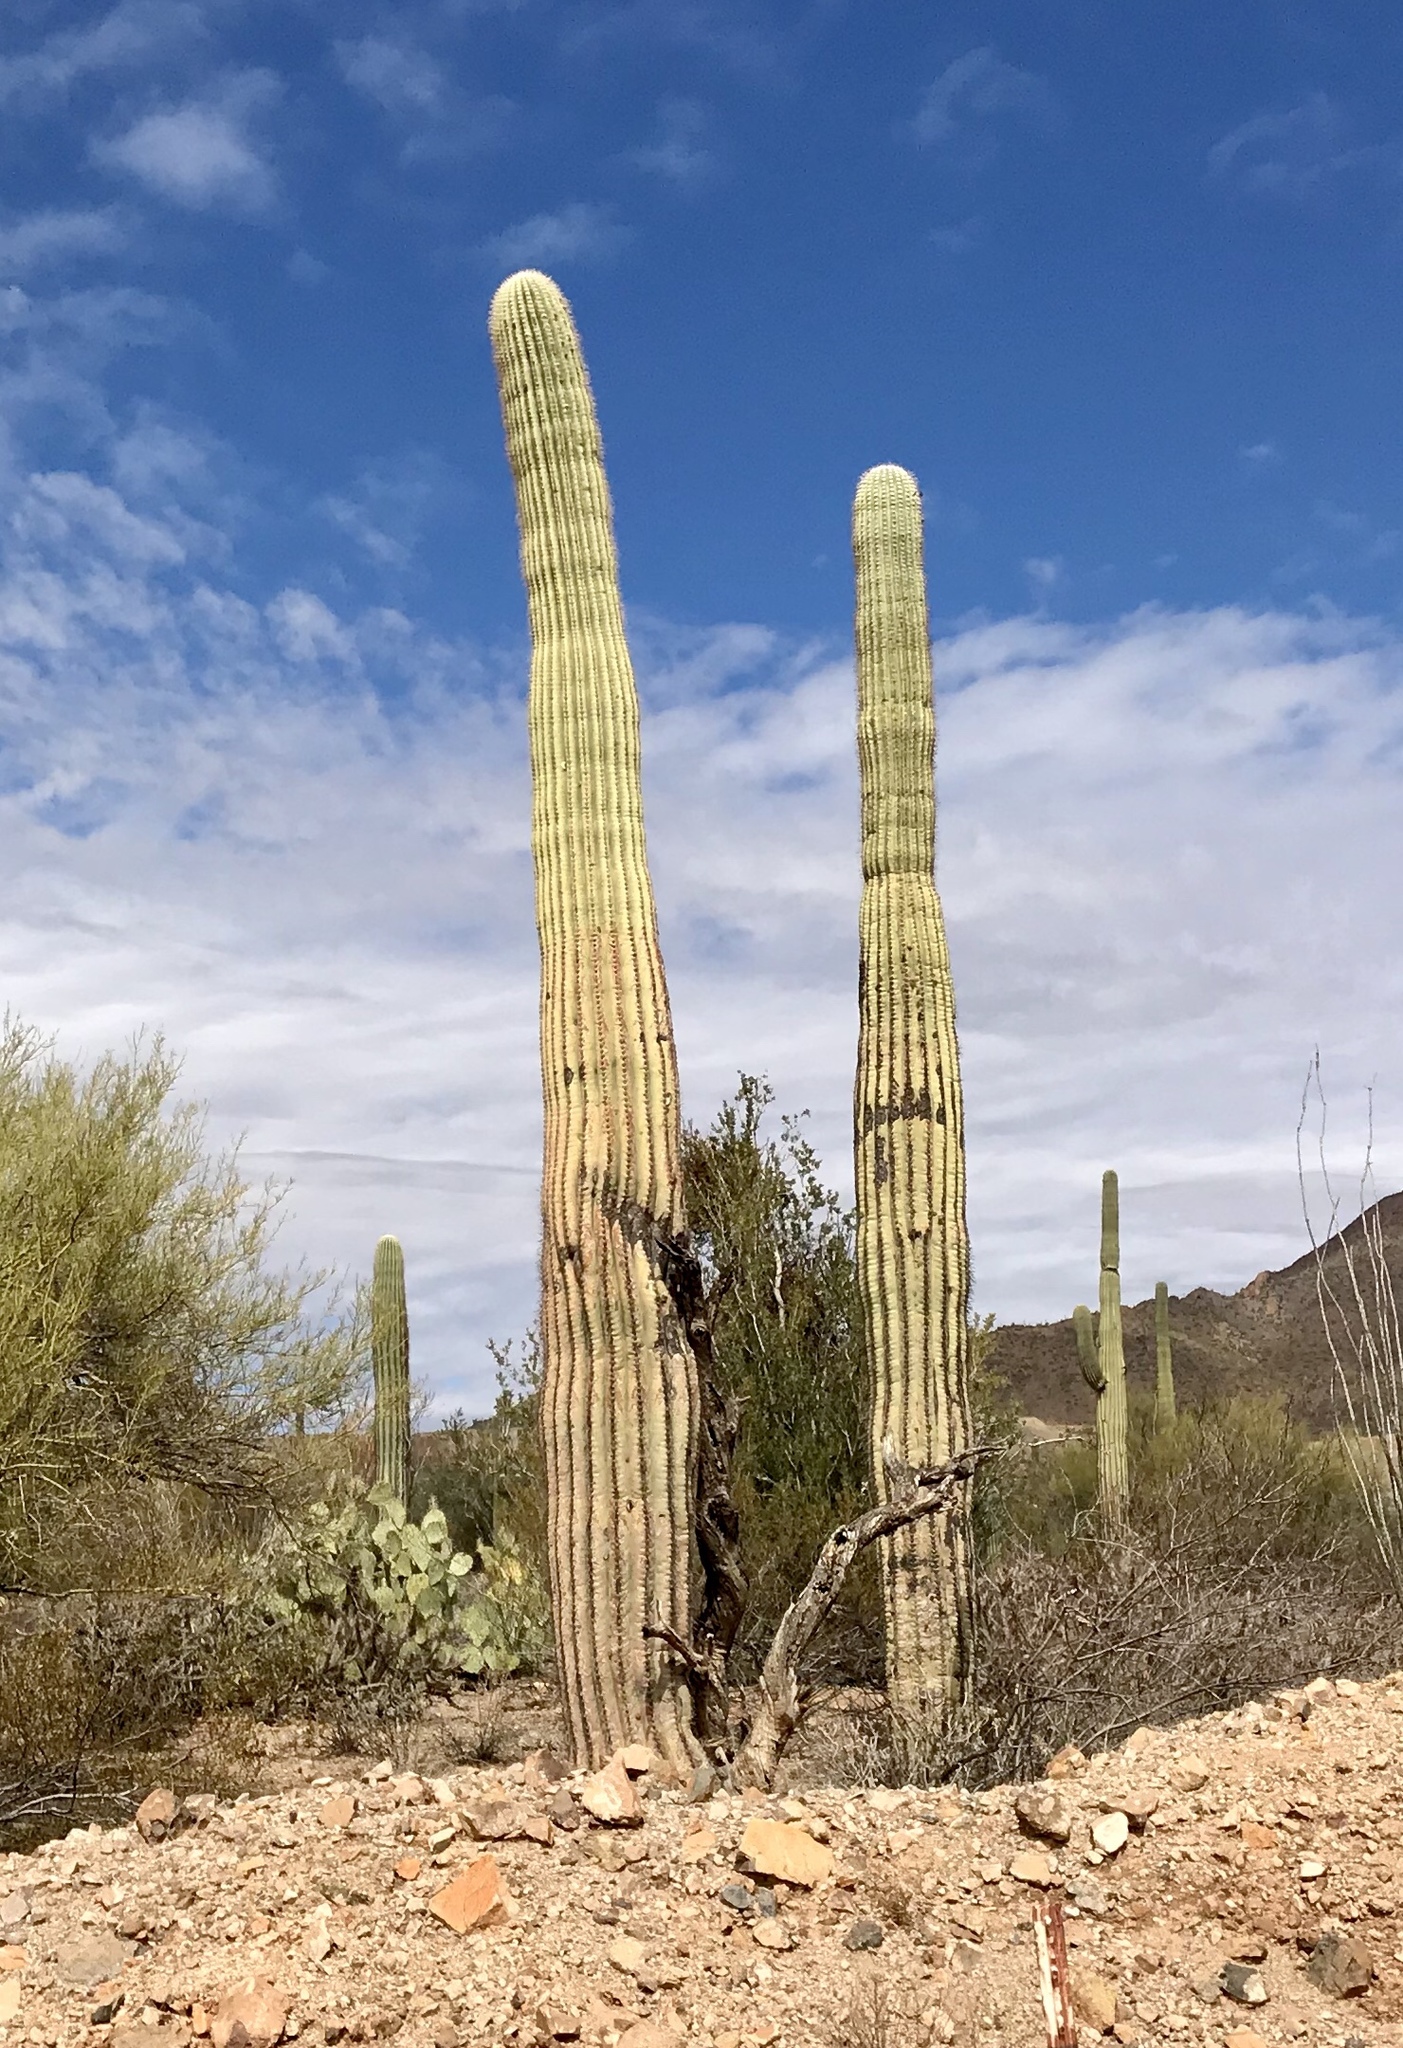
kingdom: Plantae
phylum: Tracheophyta
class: Magnoliopsida
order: Caryophyllales
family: Cactaceae
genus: Carnegiea
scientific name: Carnegiea gigantea
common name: Saguaro
